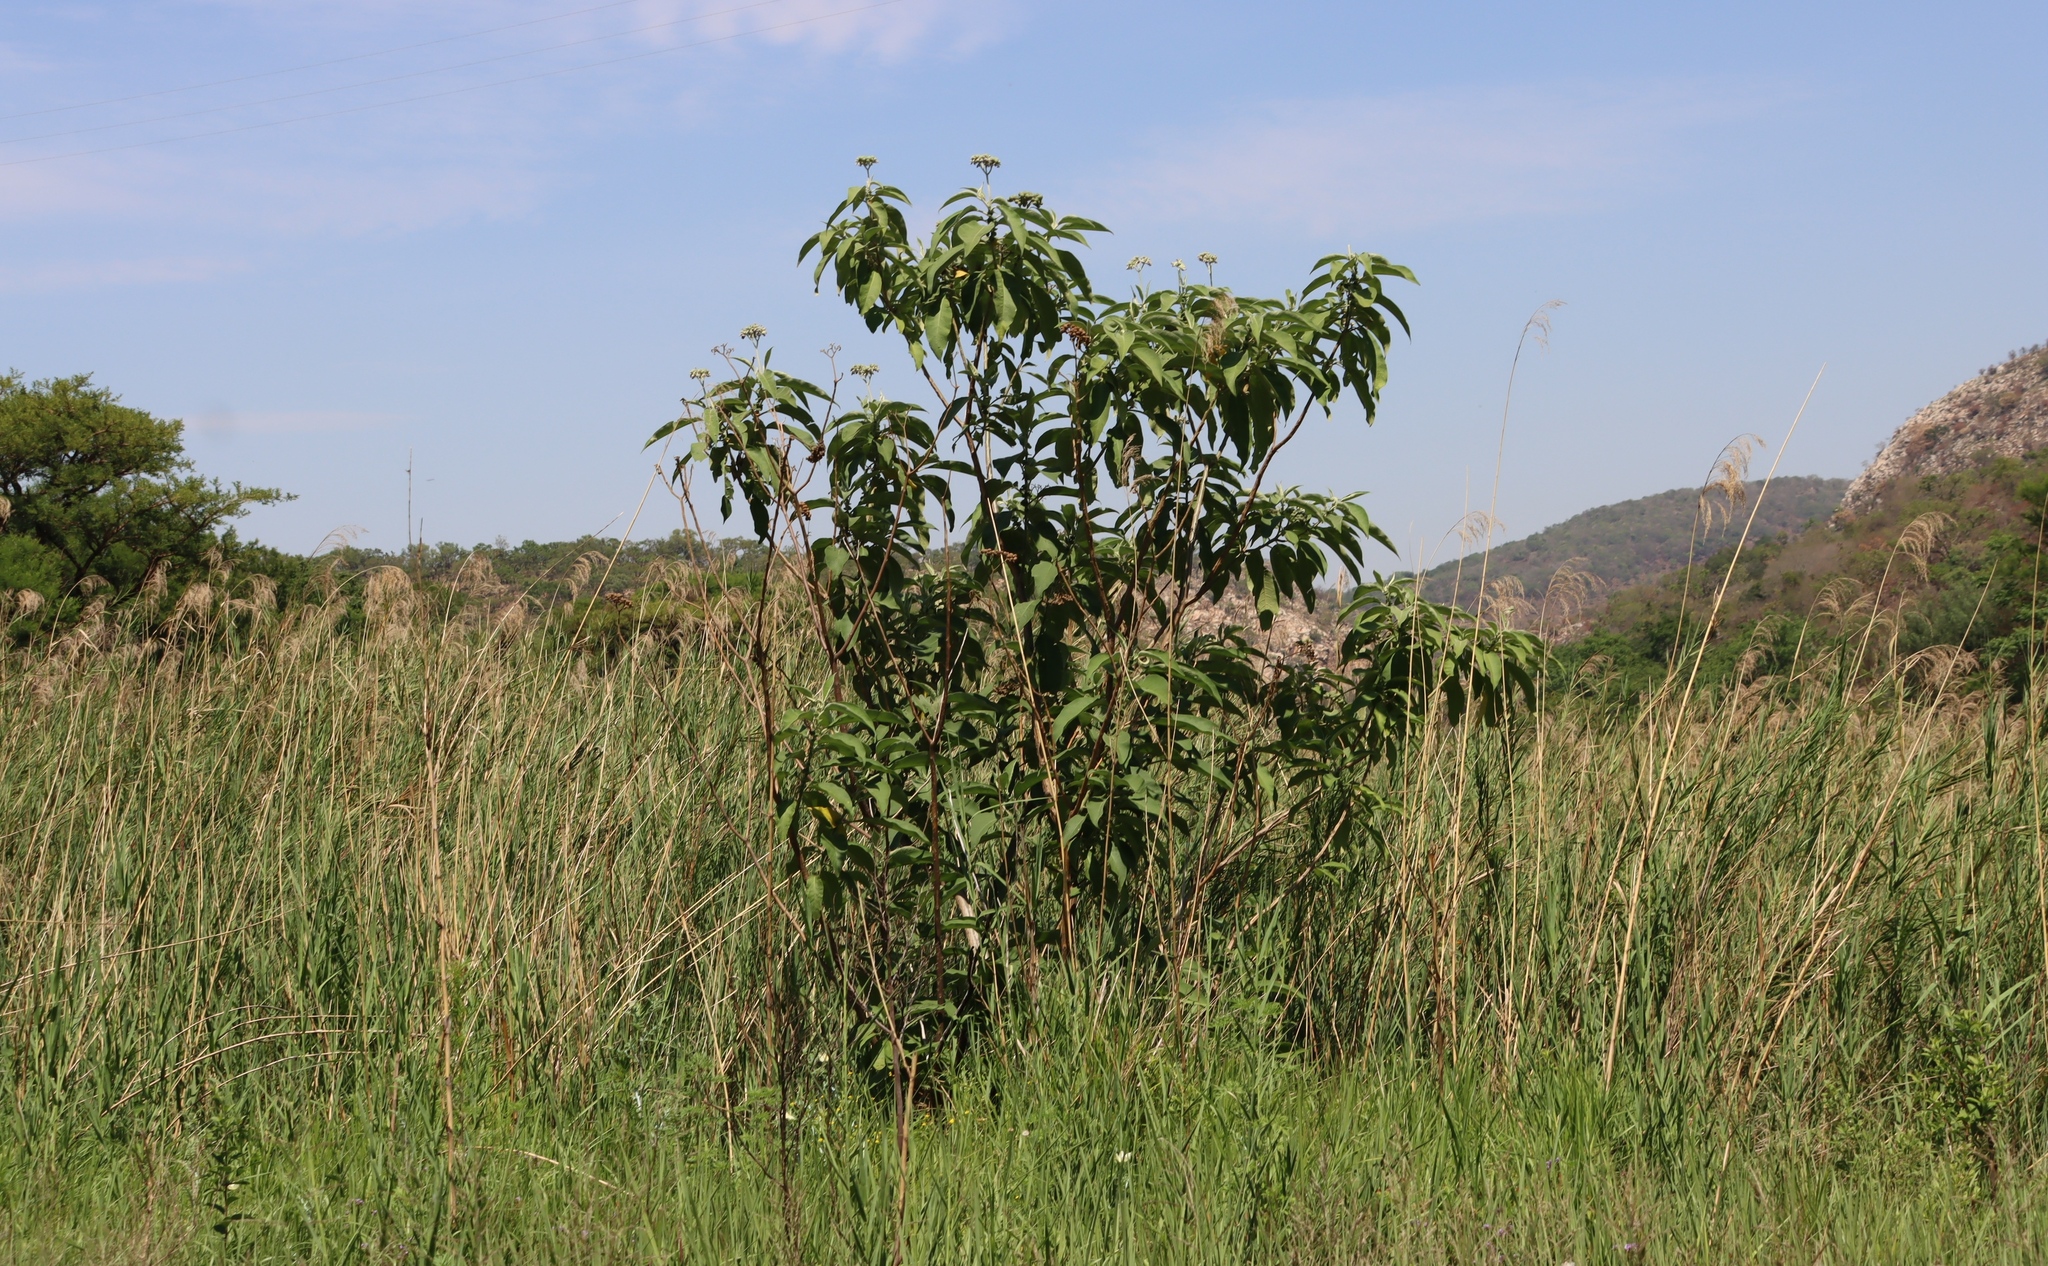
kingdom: Plantae
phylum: Tracheophyta
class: Magnoliopsida
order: Solanales
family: Solanaceae
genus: Solanum
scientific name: Solanum mauritianum
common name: Earleaf nightshade
